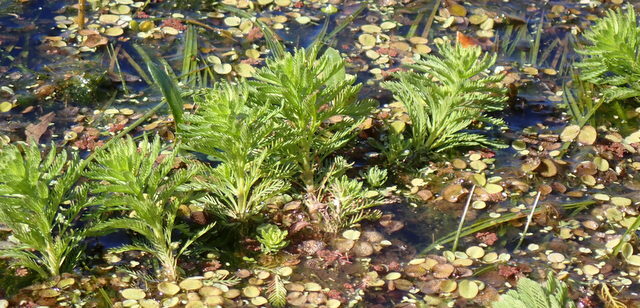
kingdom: Plantae
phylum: Tracheophyta
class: Magnoliopsida
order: Saxifragales
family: Haloragaceae
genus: Myriophyllum
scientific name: Myriophyllum aquaticum
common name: Parrot's feather
